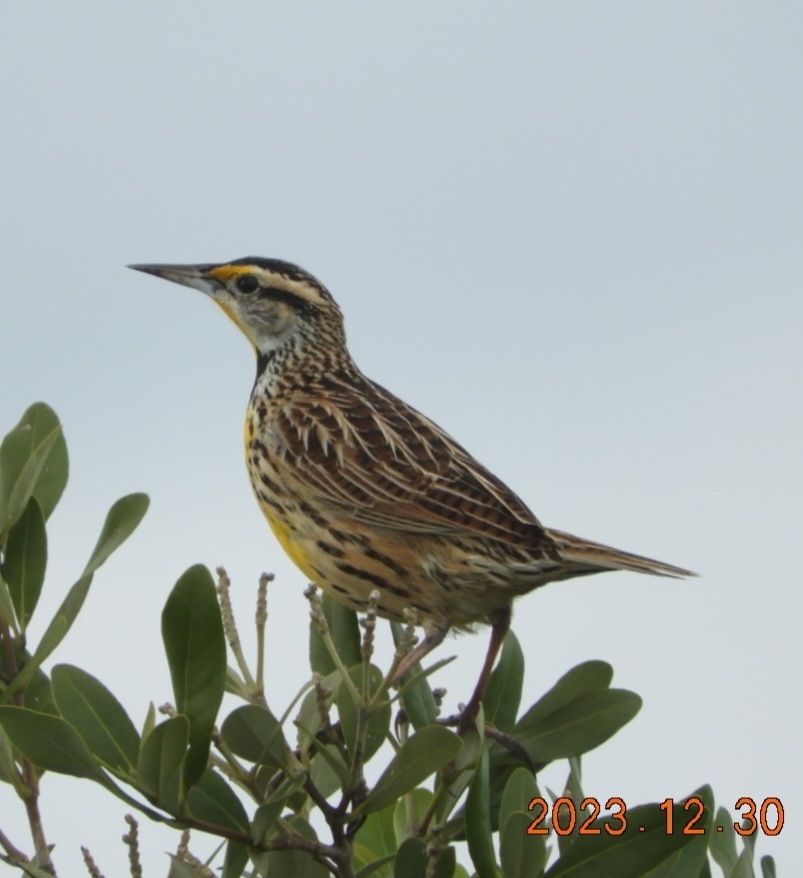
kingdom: Animalia
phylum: Chordata
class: Aves
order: Passeriformes
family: Icteridae
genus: Sturnella
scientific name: Sturnella magna
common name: Eastern meadowlark
